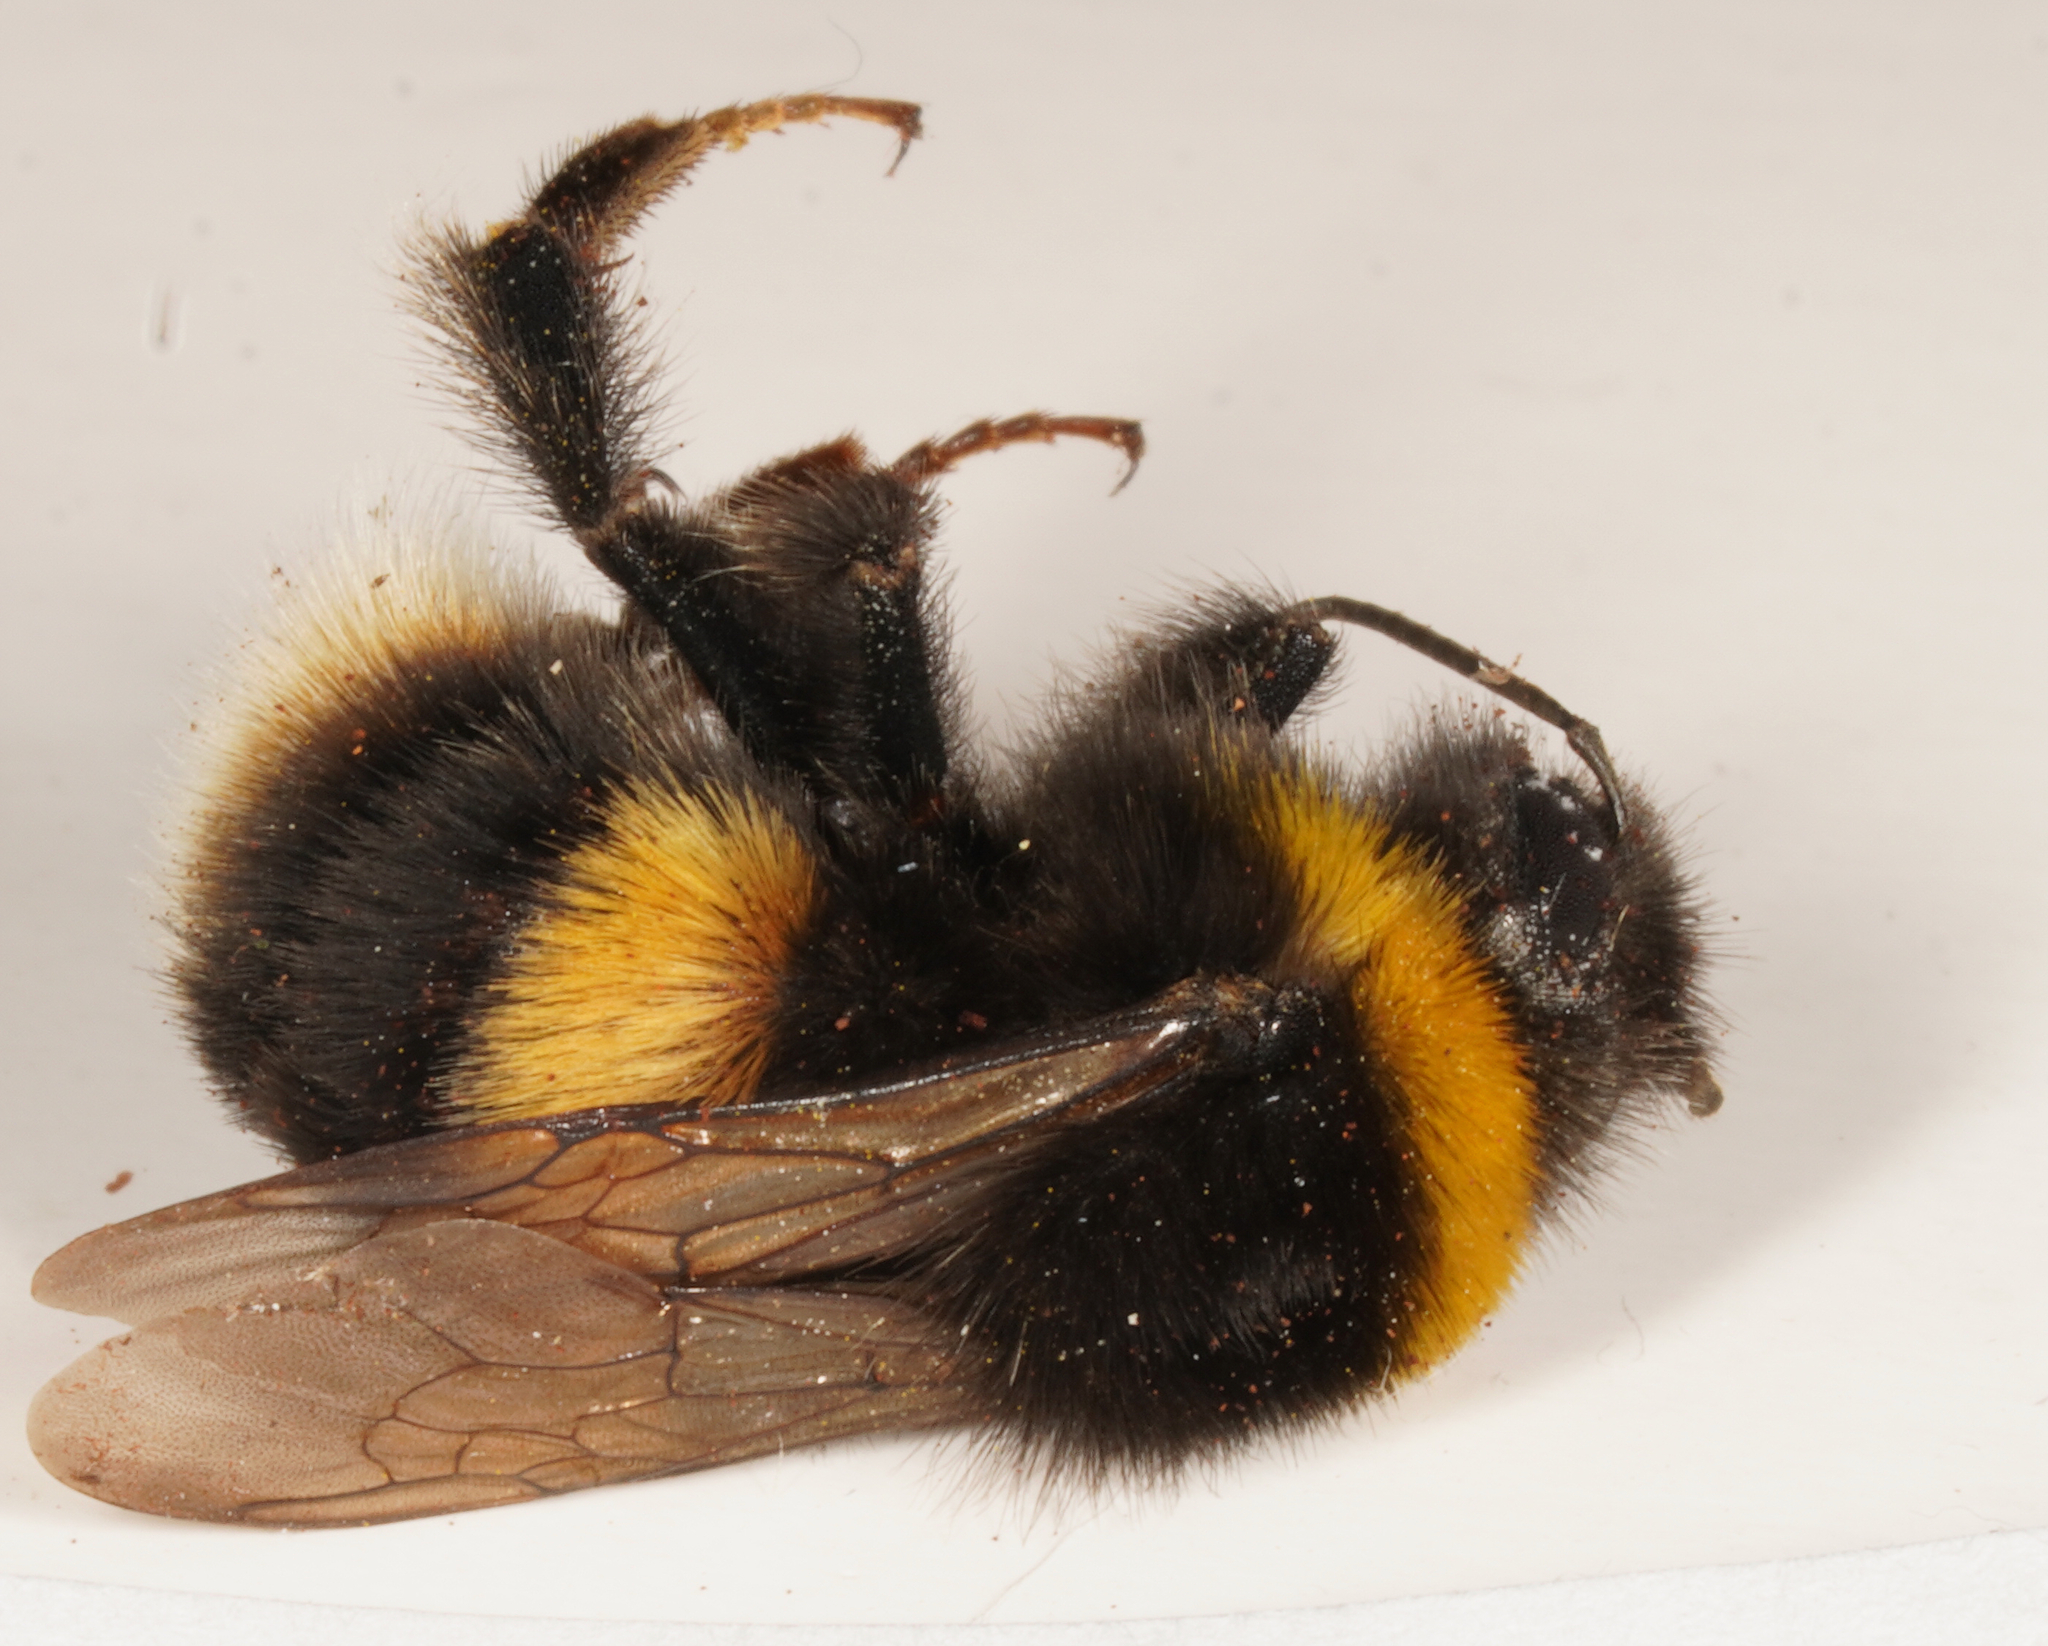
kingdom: Animalia
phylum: Arthropoda
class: Insecta
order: Hymenoptera
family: Apidae
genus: Bombus
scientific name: Bombus terrestris
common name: Buff-tailed bumblebee
